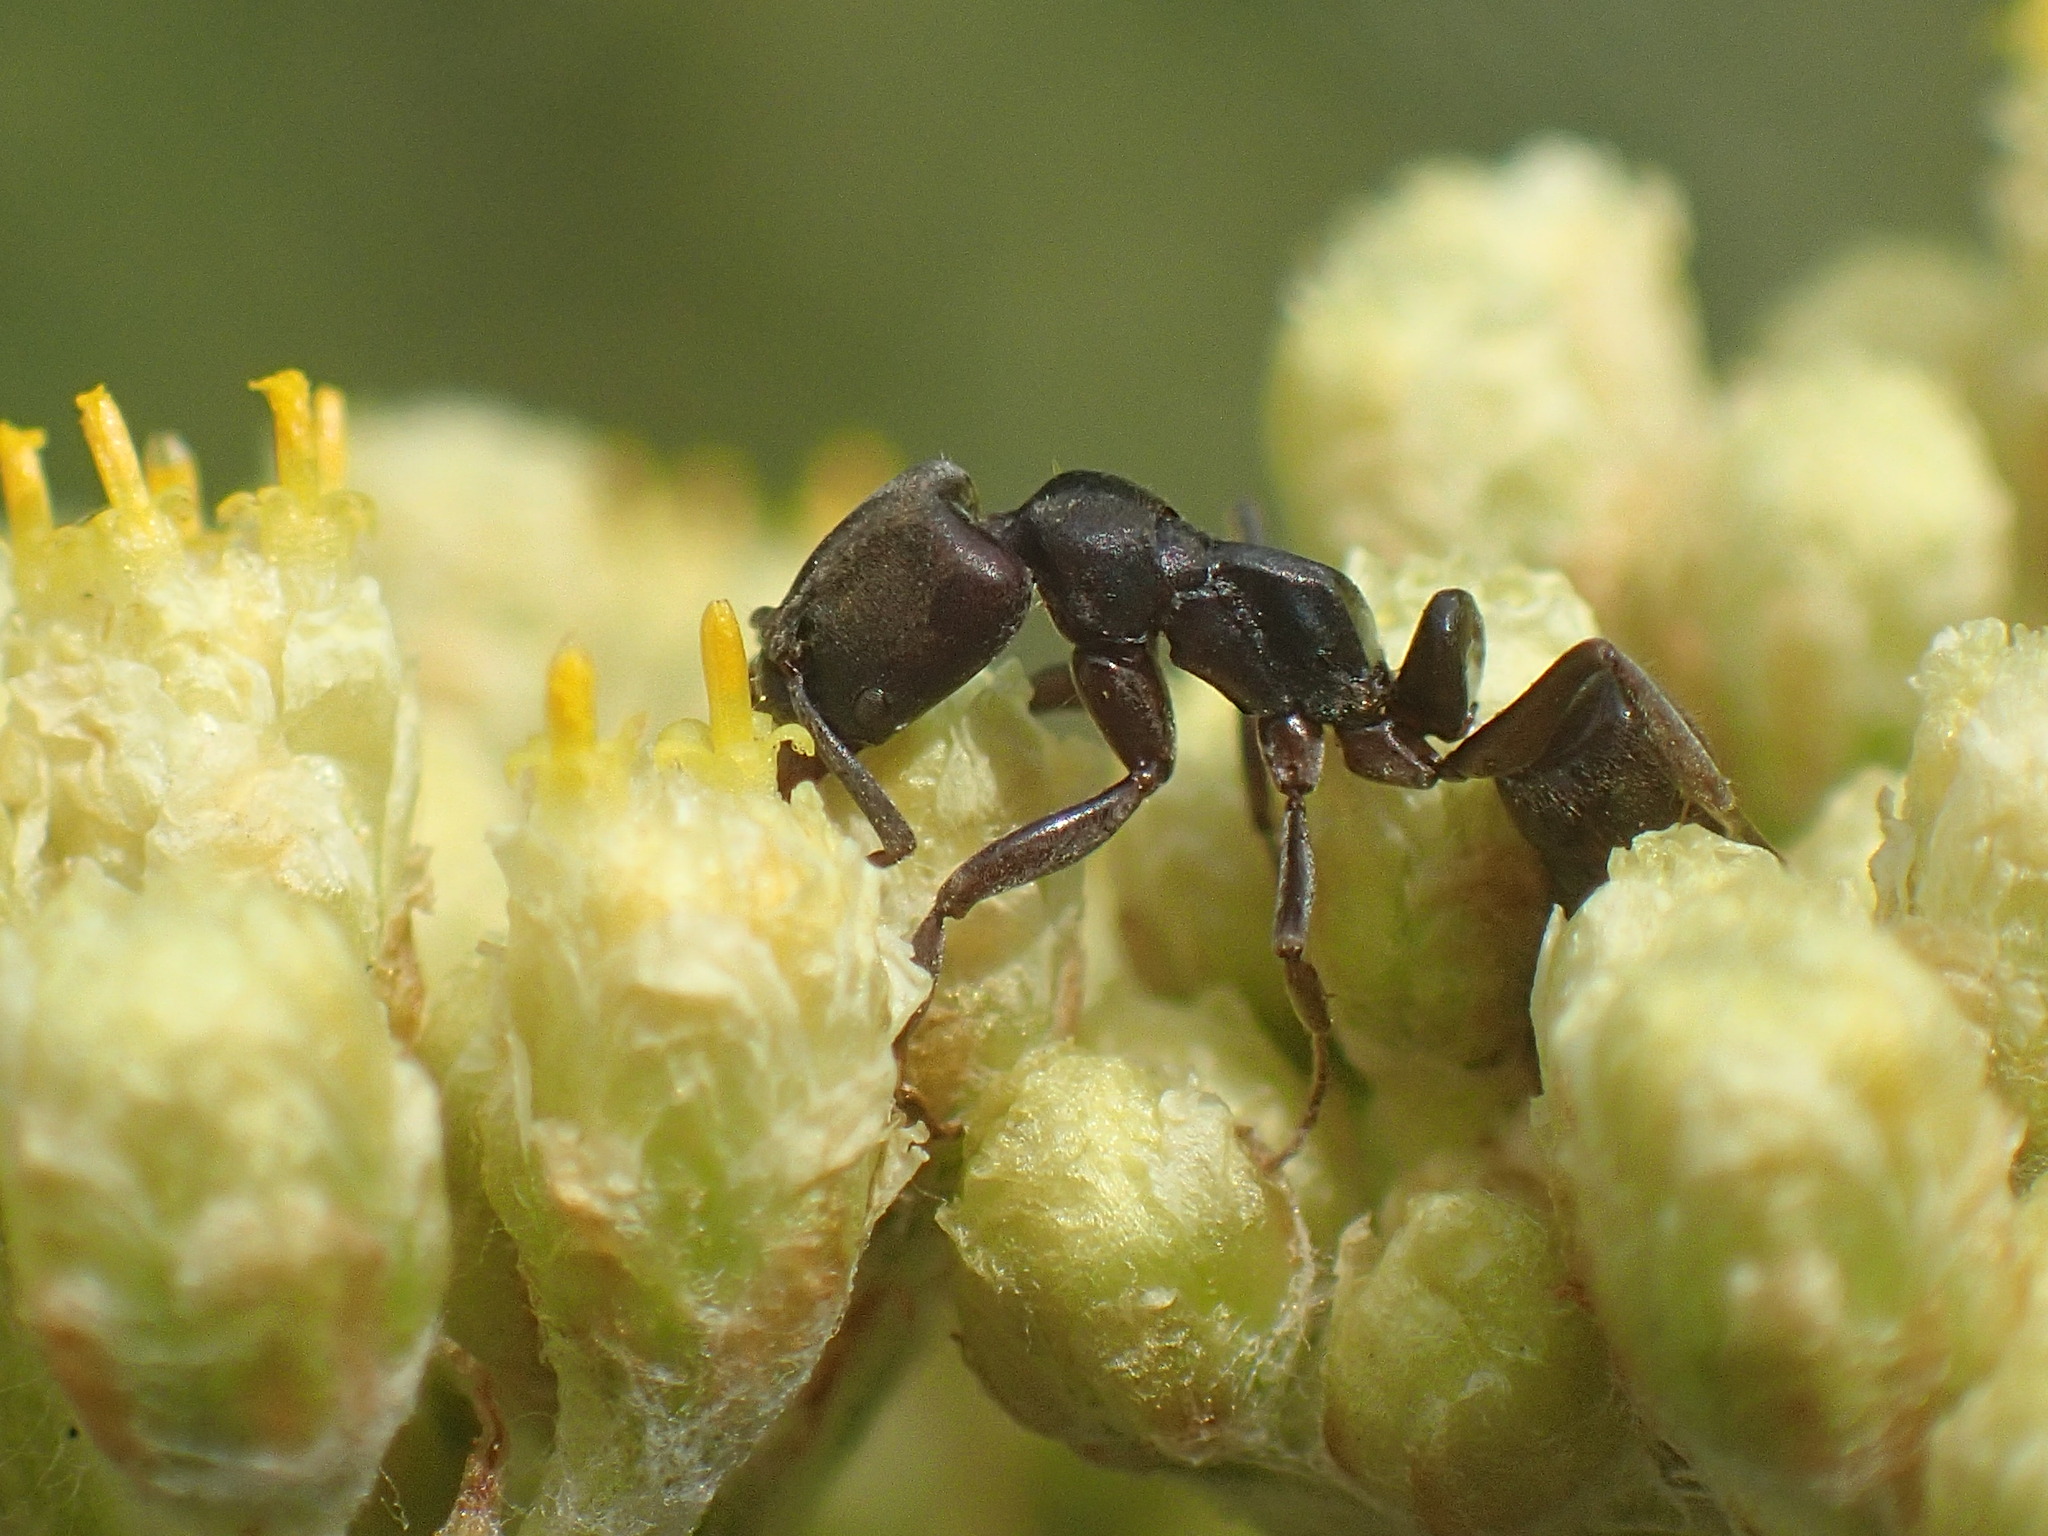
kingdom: Animalia
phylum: Arthropoda
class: Insecta
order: Hymenoptera
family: Formicidae
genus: Mesoponera
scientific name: Mesoponera caffraria
